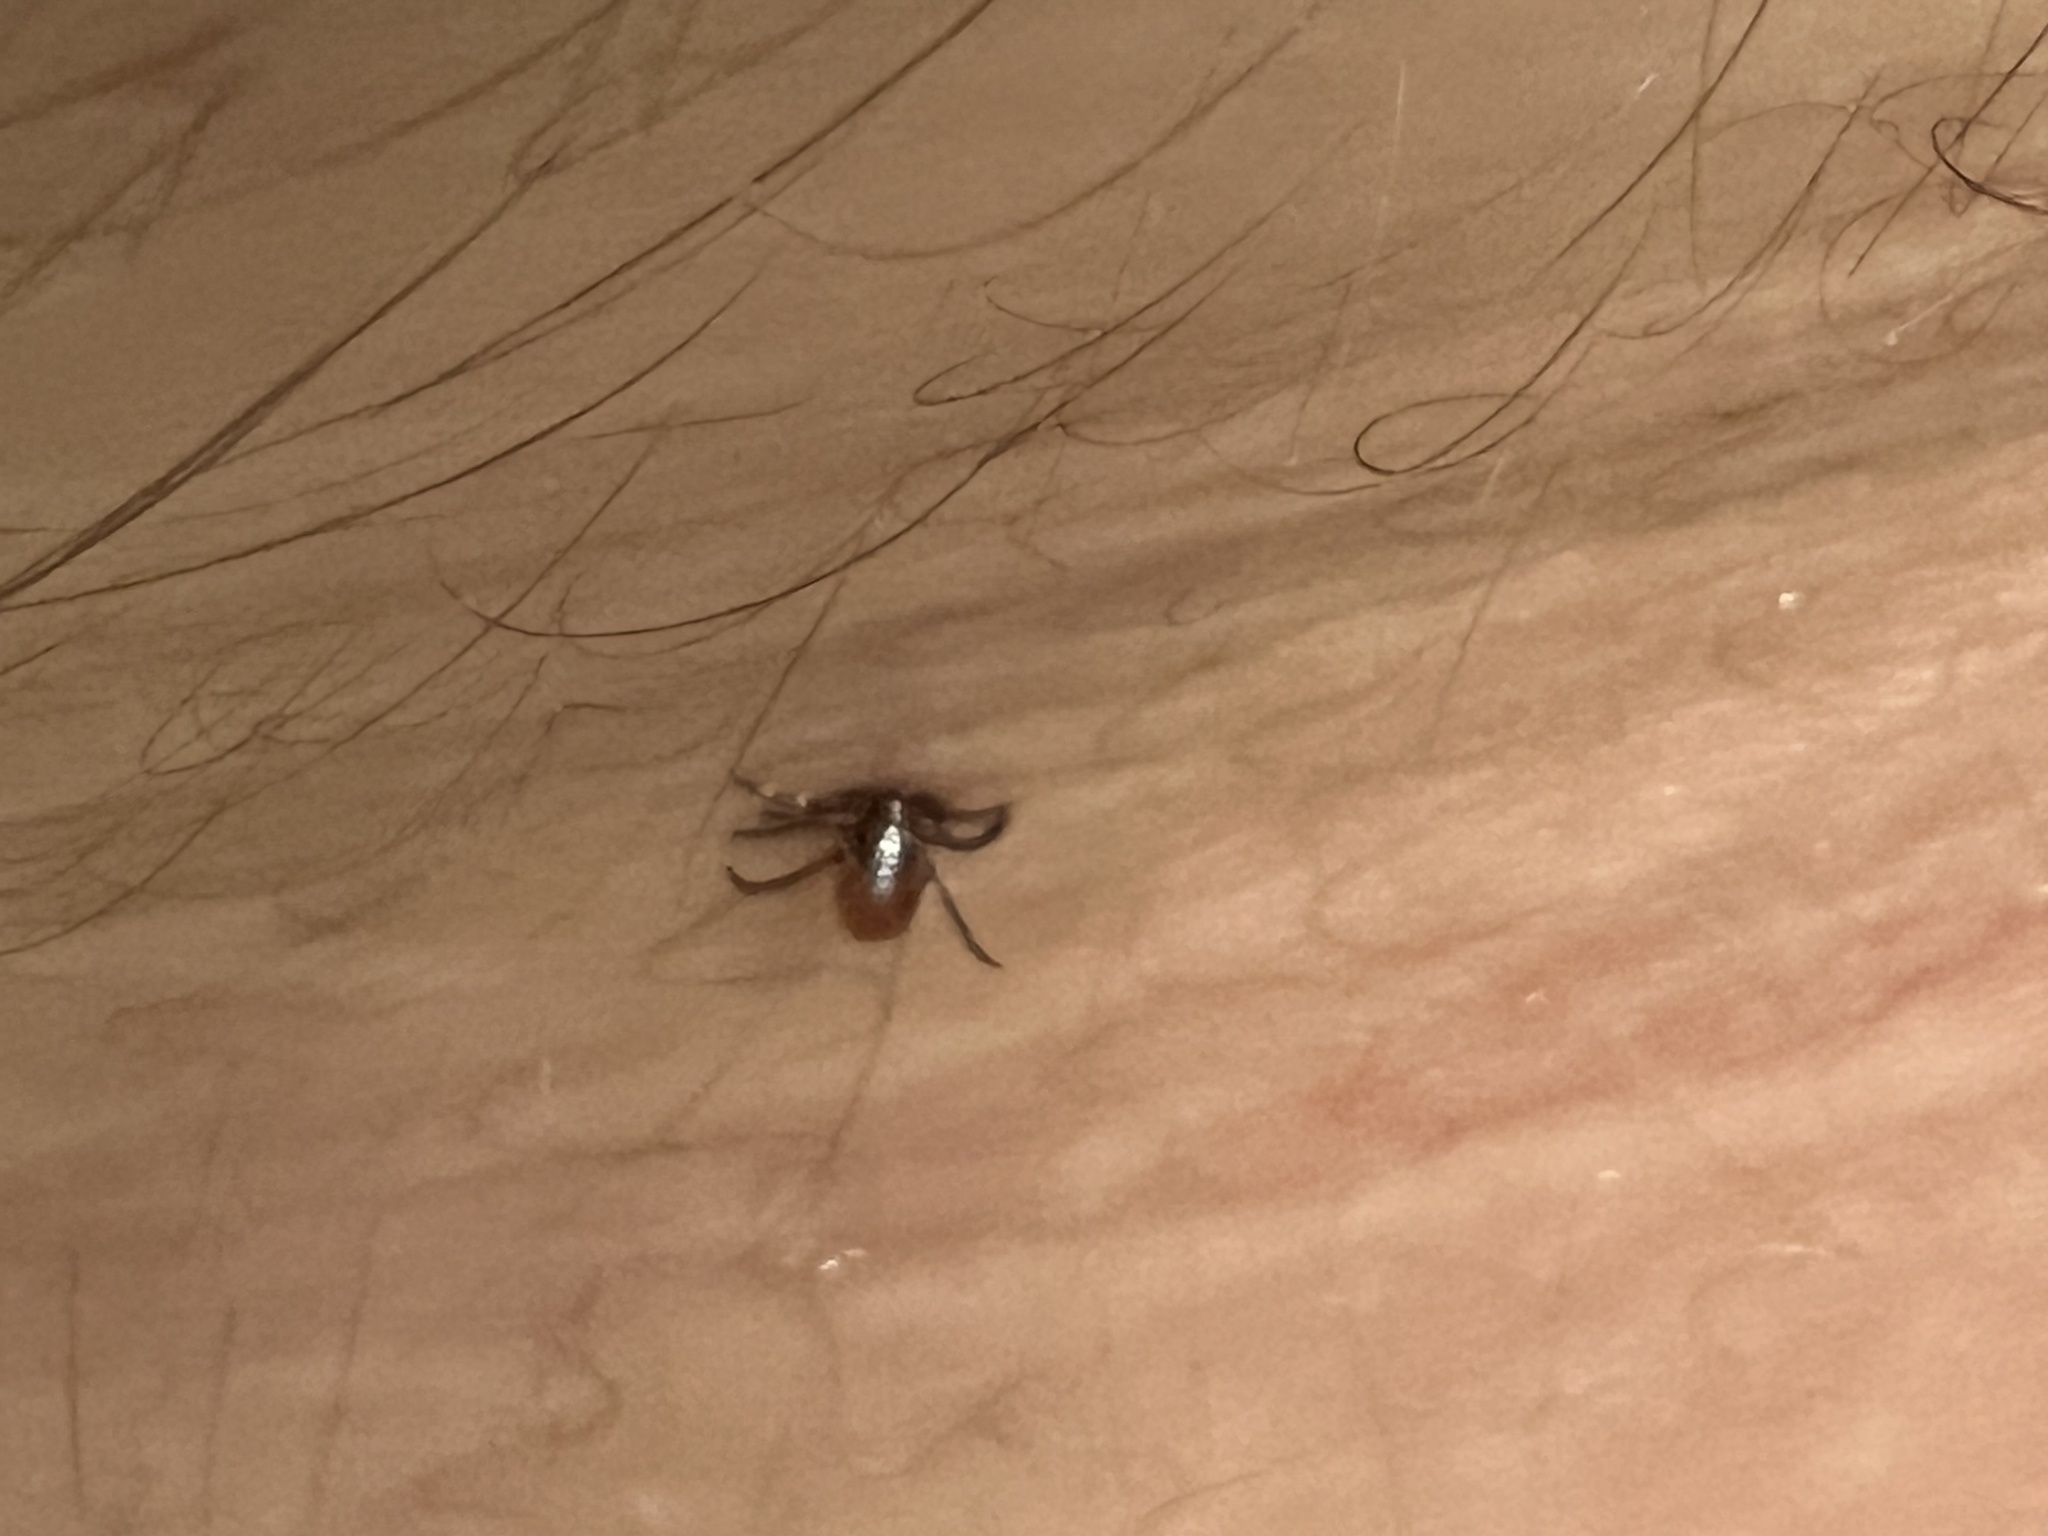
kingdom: Animalia
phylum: Arthropoda
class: Arachnida
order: Ixodida
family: Ixodidae
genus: Ixodes
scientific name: Ixodes scapularis
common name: Black legged tick
